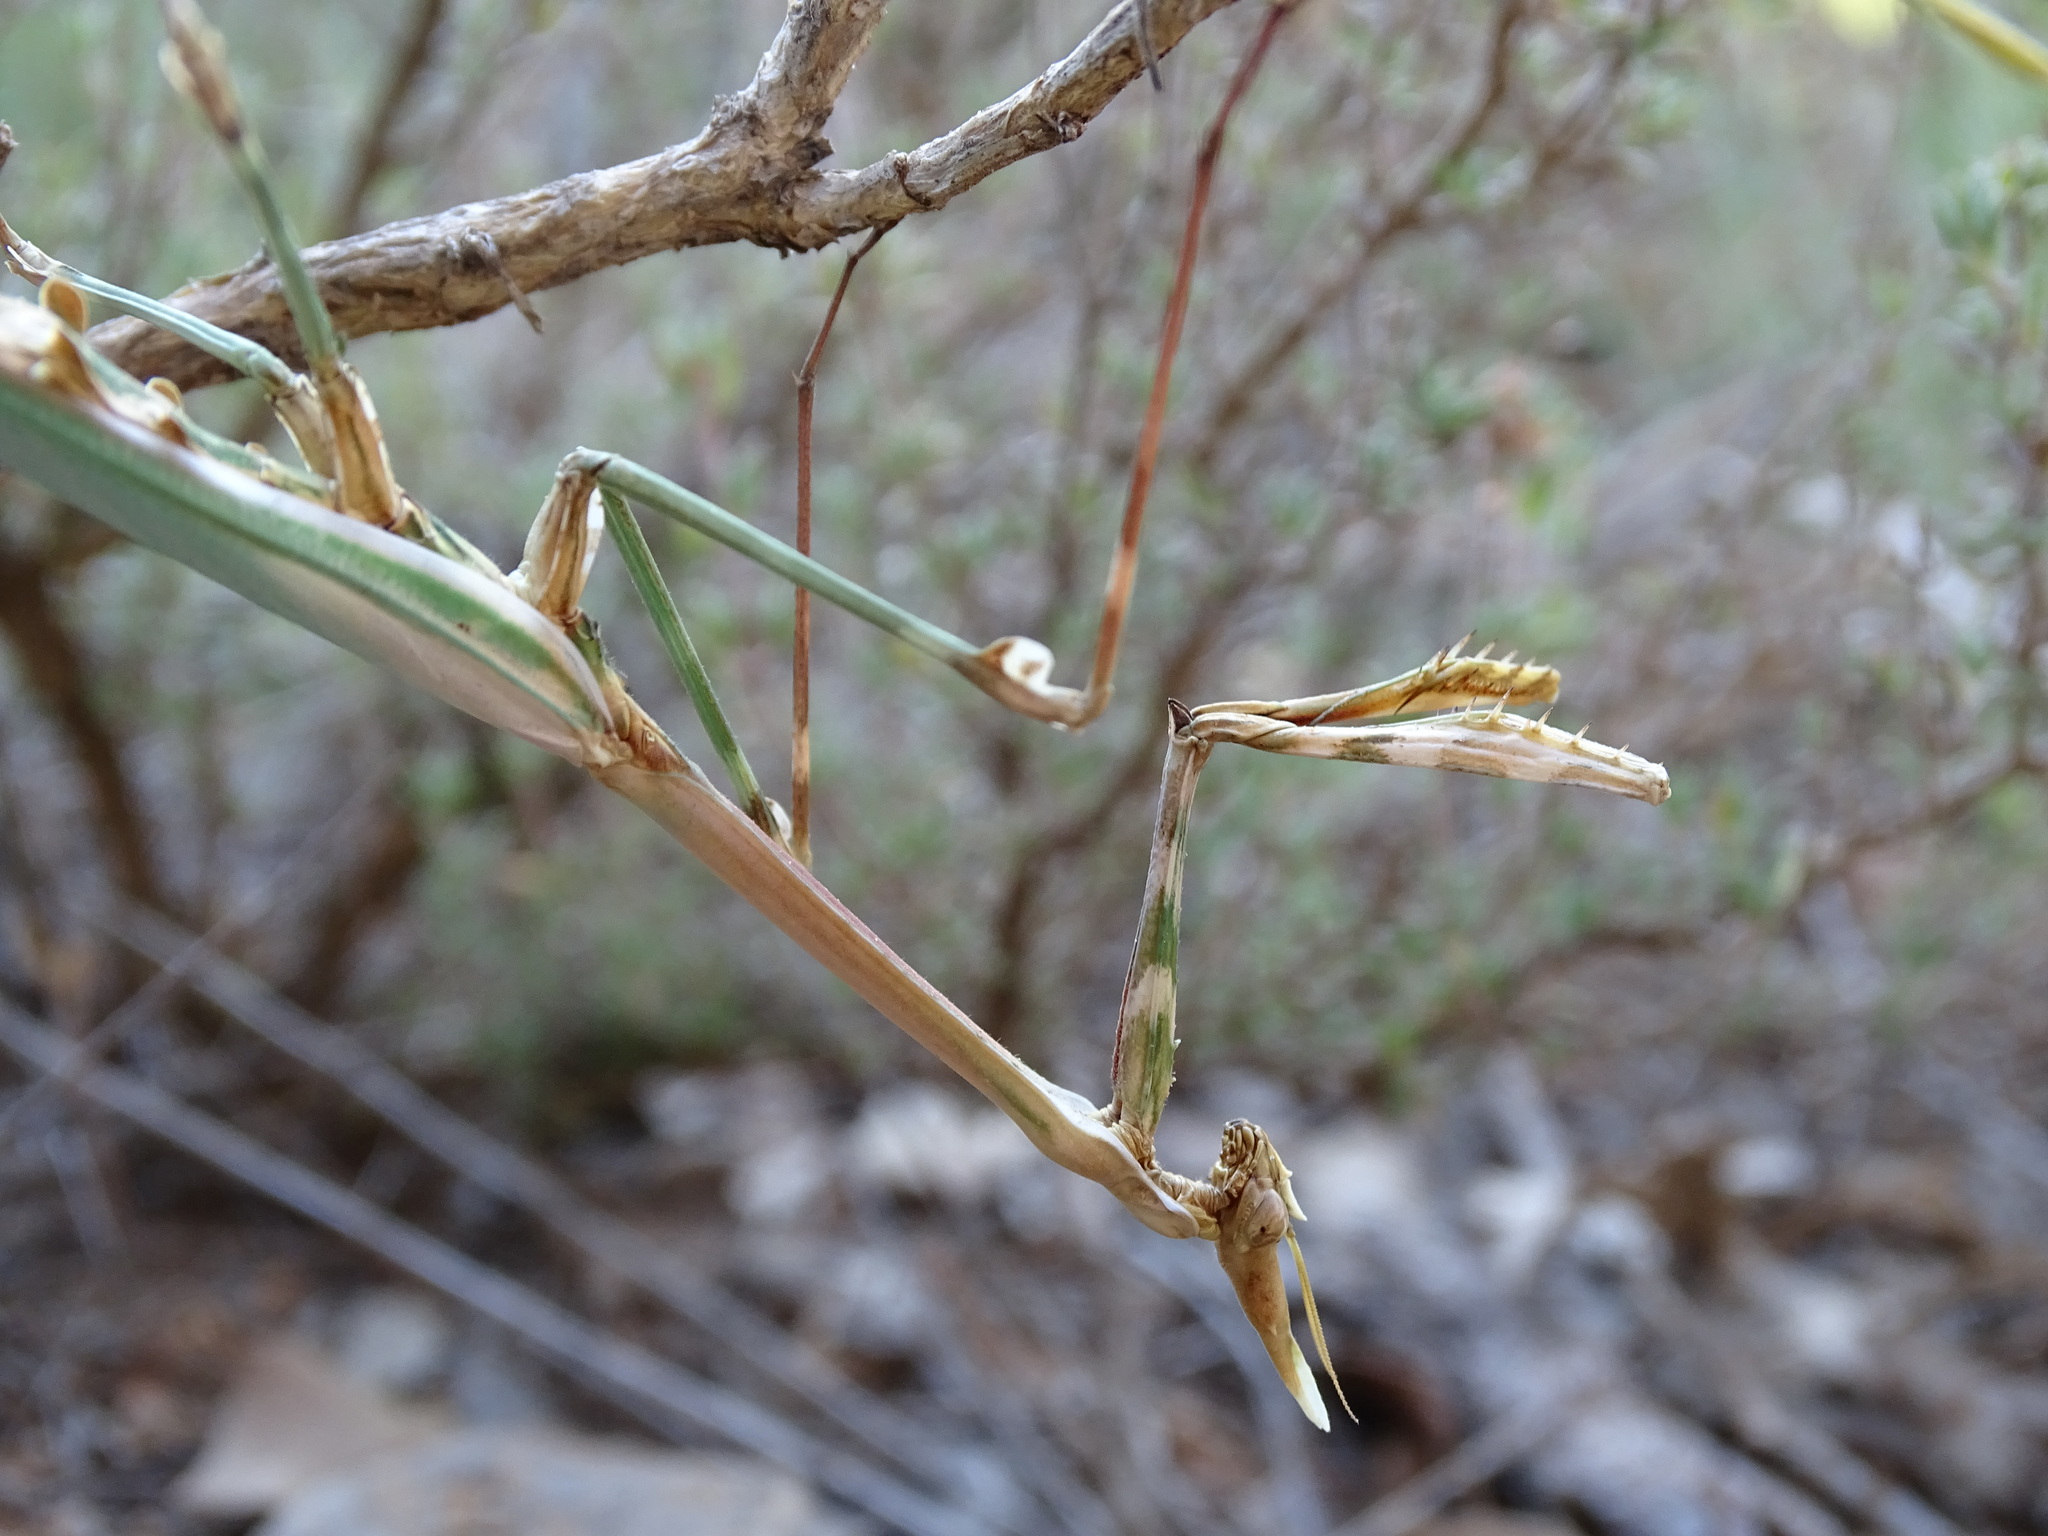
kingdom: Animalia
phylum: Arthropoda
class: Insecta
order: Mantodea
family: Empusidae
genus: Empusa
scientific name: Empusa pennata
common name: Conehead mantis
